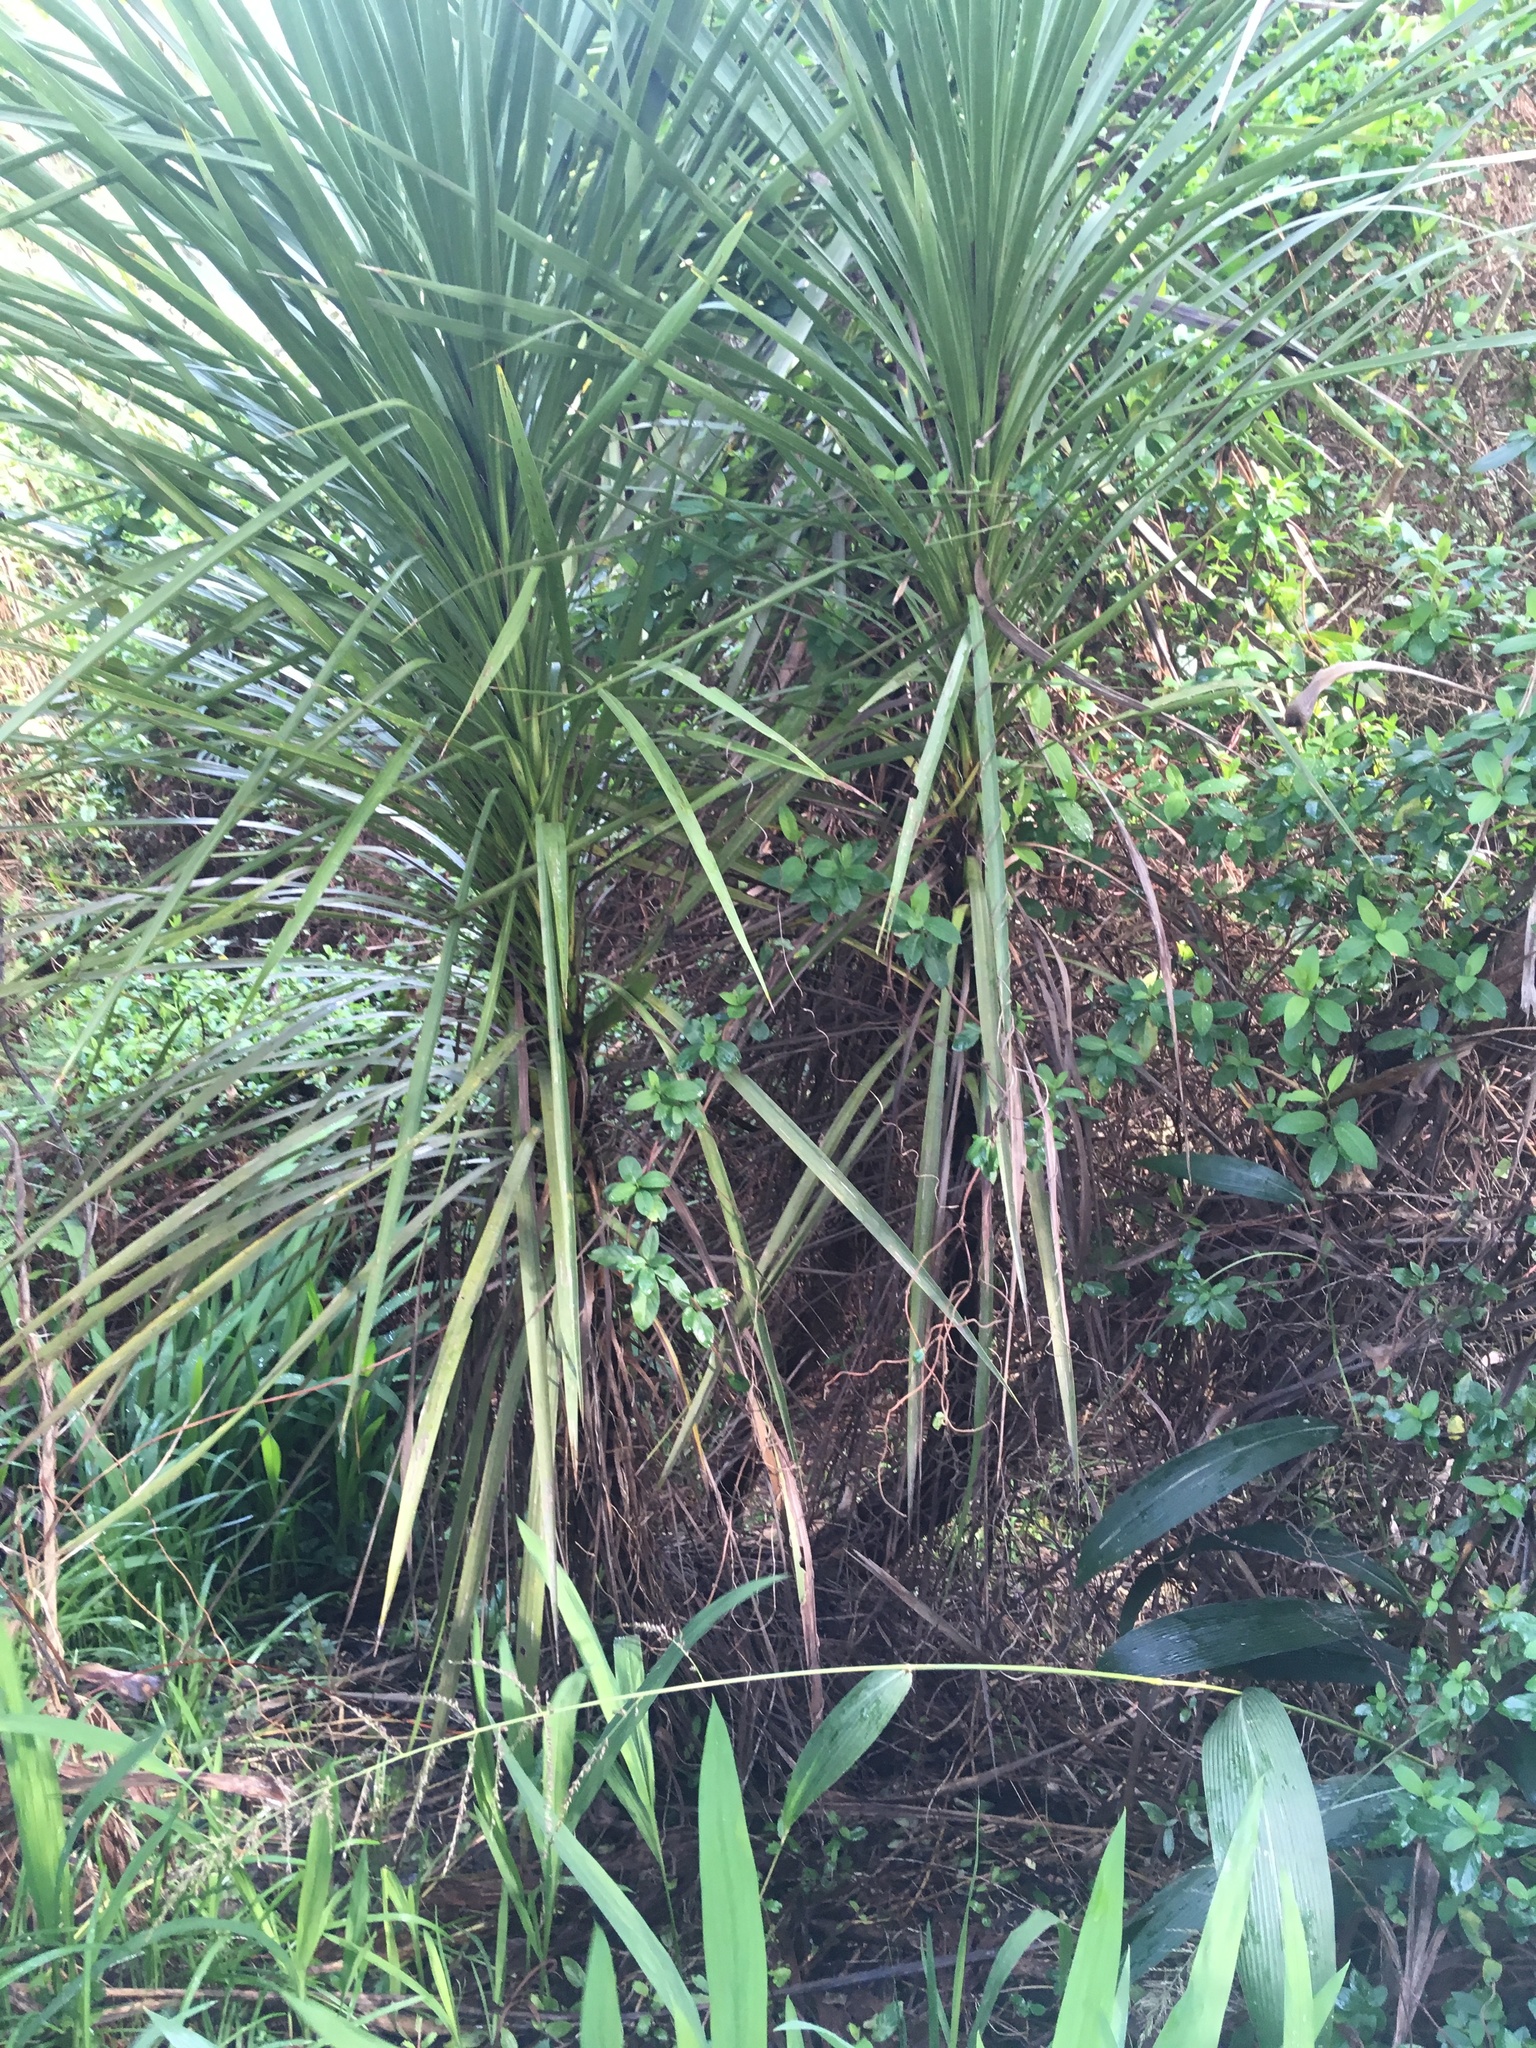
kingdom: Plantae
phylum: Tracheophyta
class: Liliopsida
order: Asparagales
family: Asparagaceae
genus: Cordyline
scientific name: Cordyline australis
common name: Cabbage-palm
